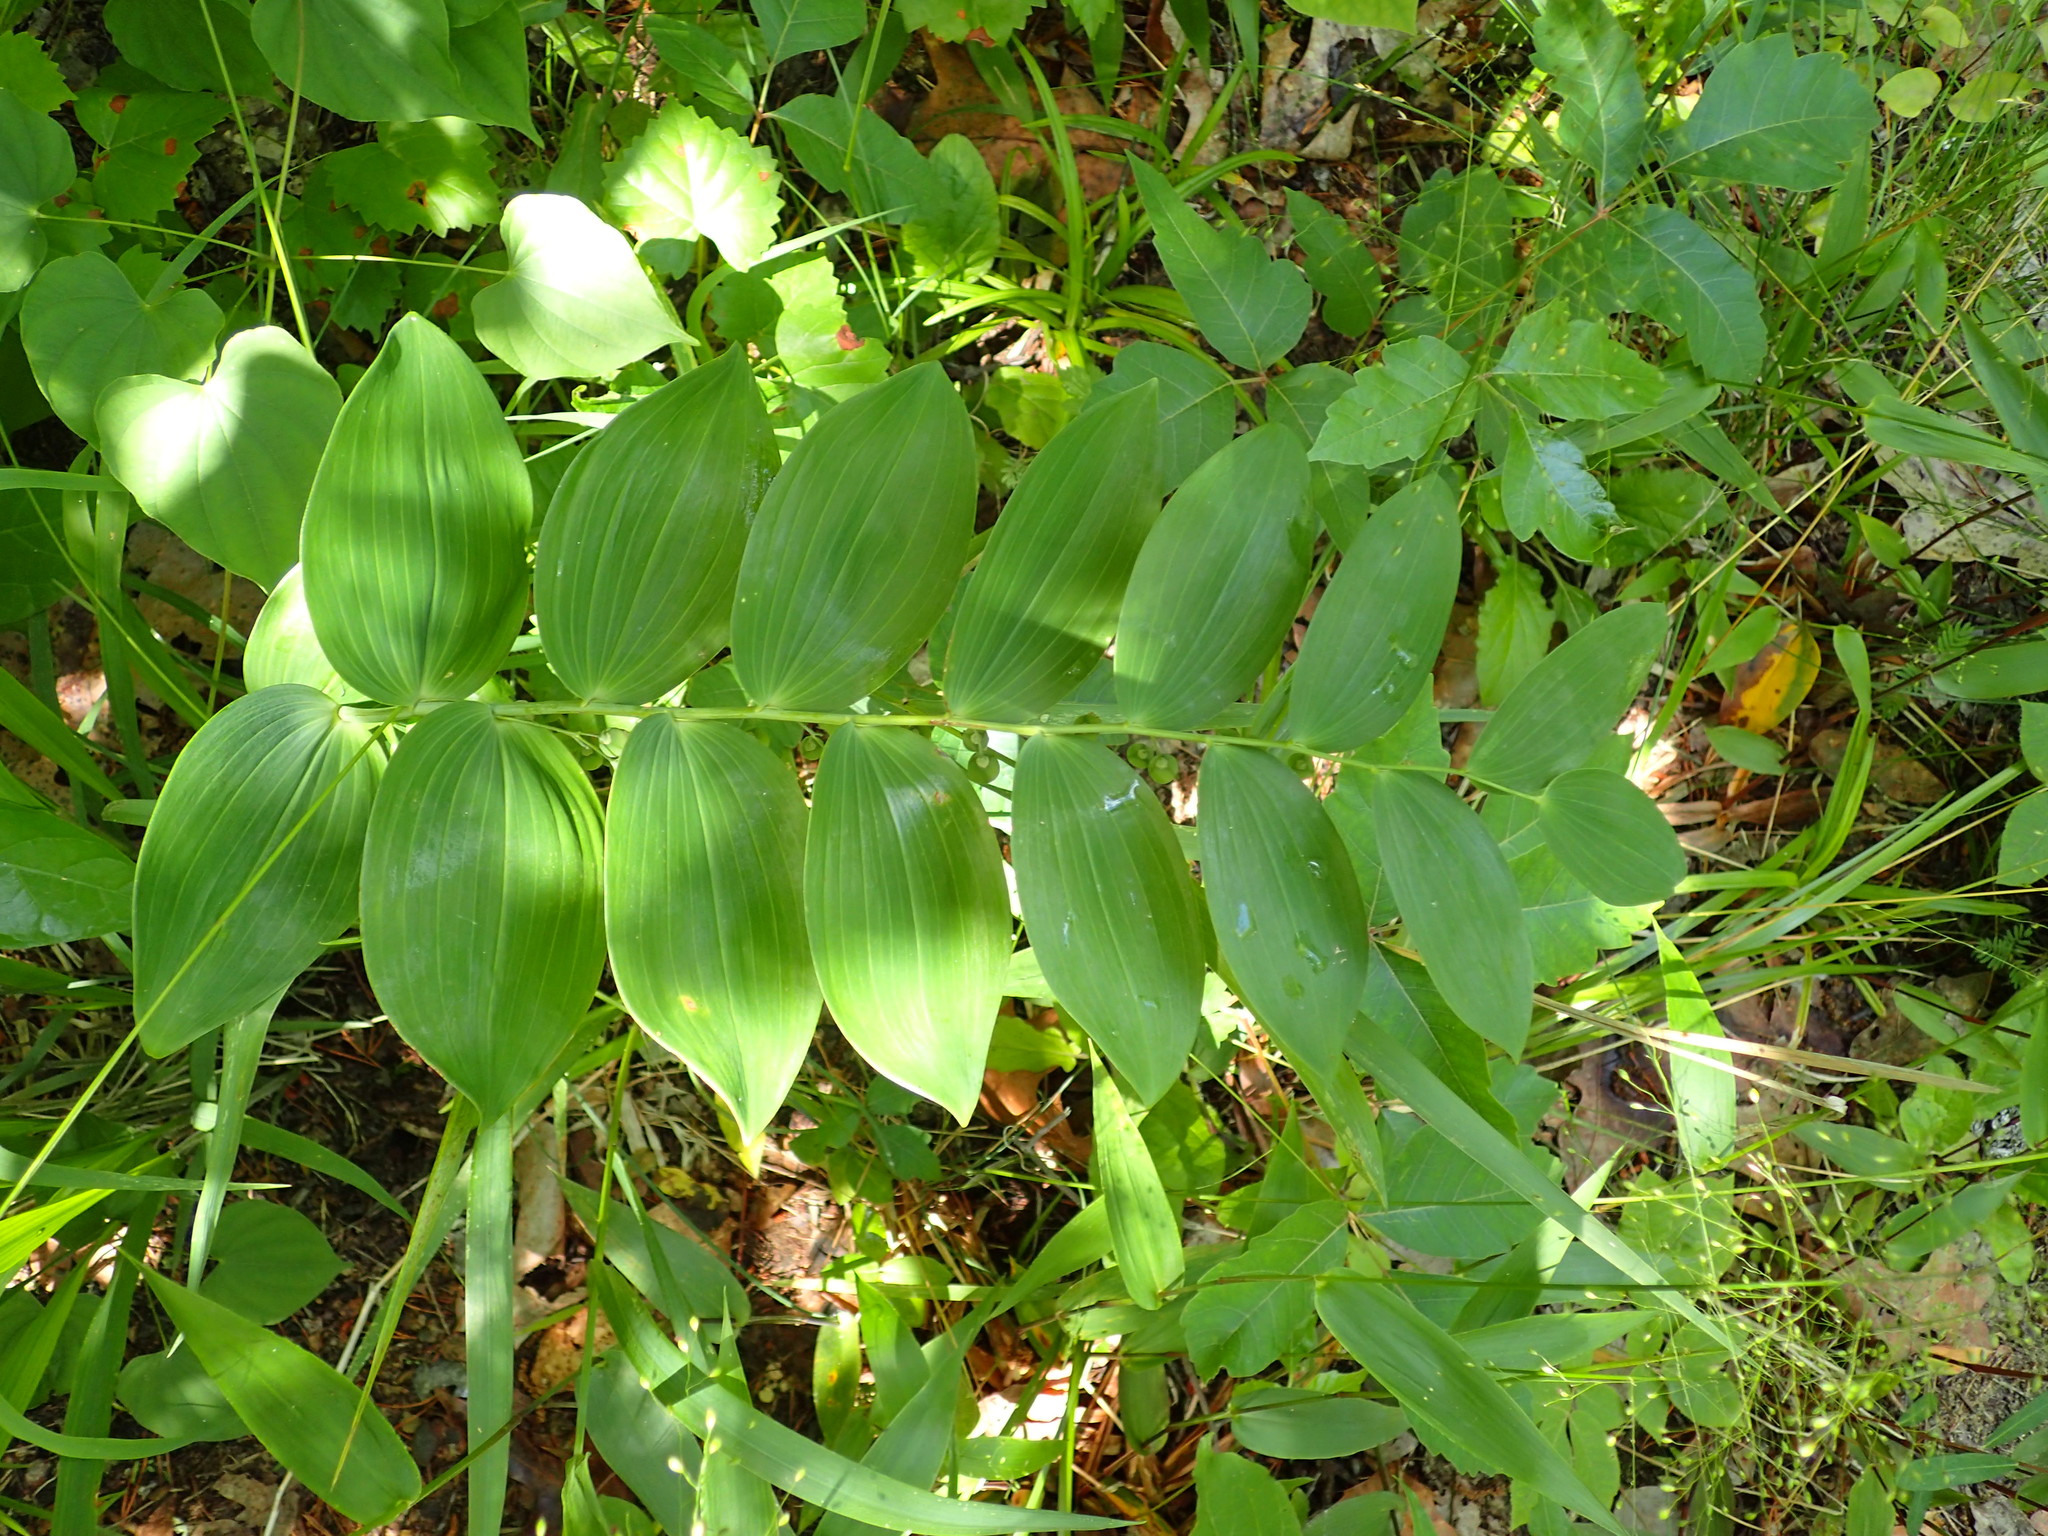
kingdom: Plantae
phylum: Tracheophyta
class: Liliopsida
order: Asparagales
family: Asparagaceae
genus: Polygonatum
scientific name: Polygonatum biflorum
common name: American solomon's-seal
